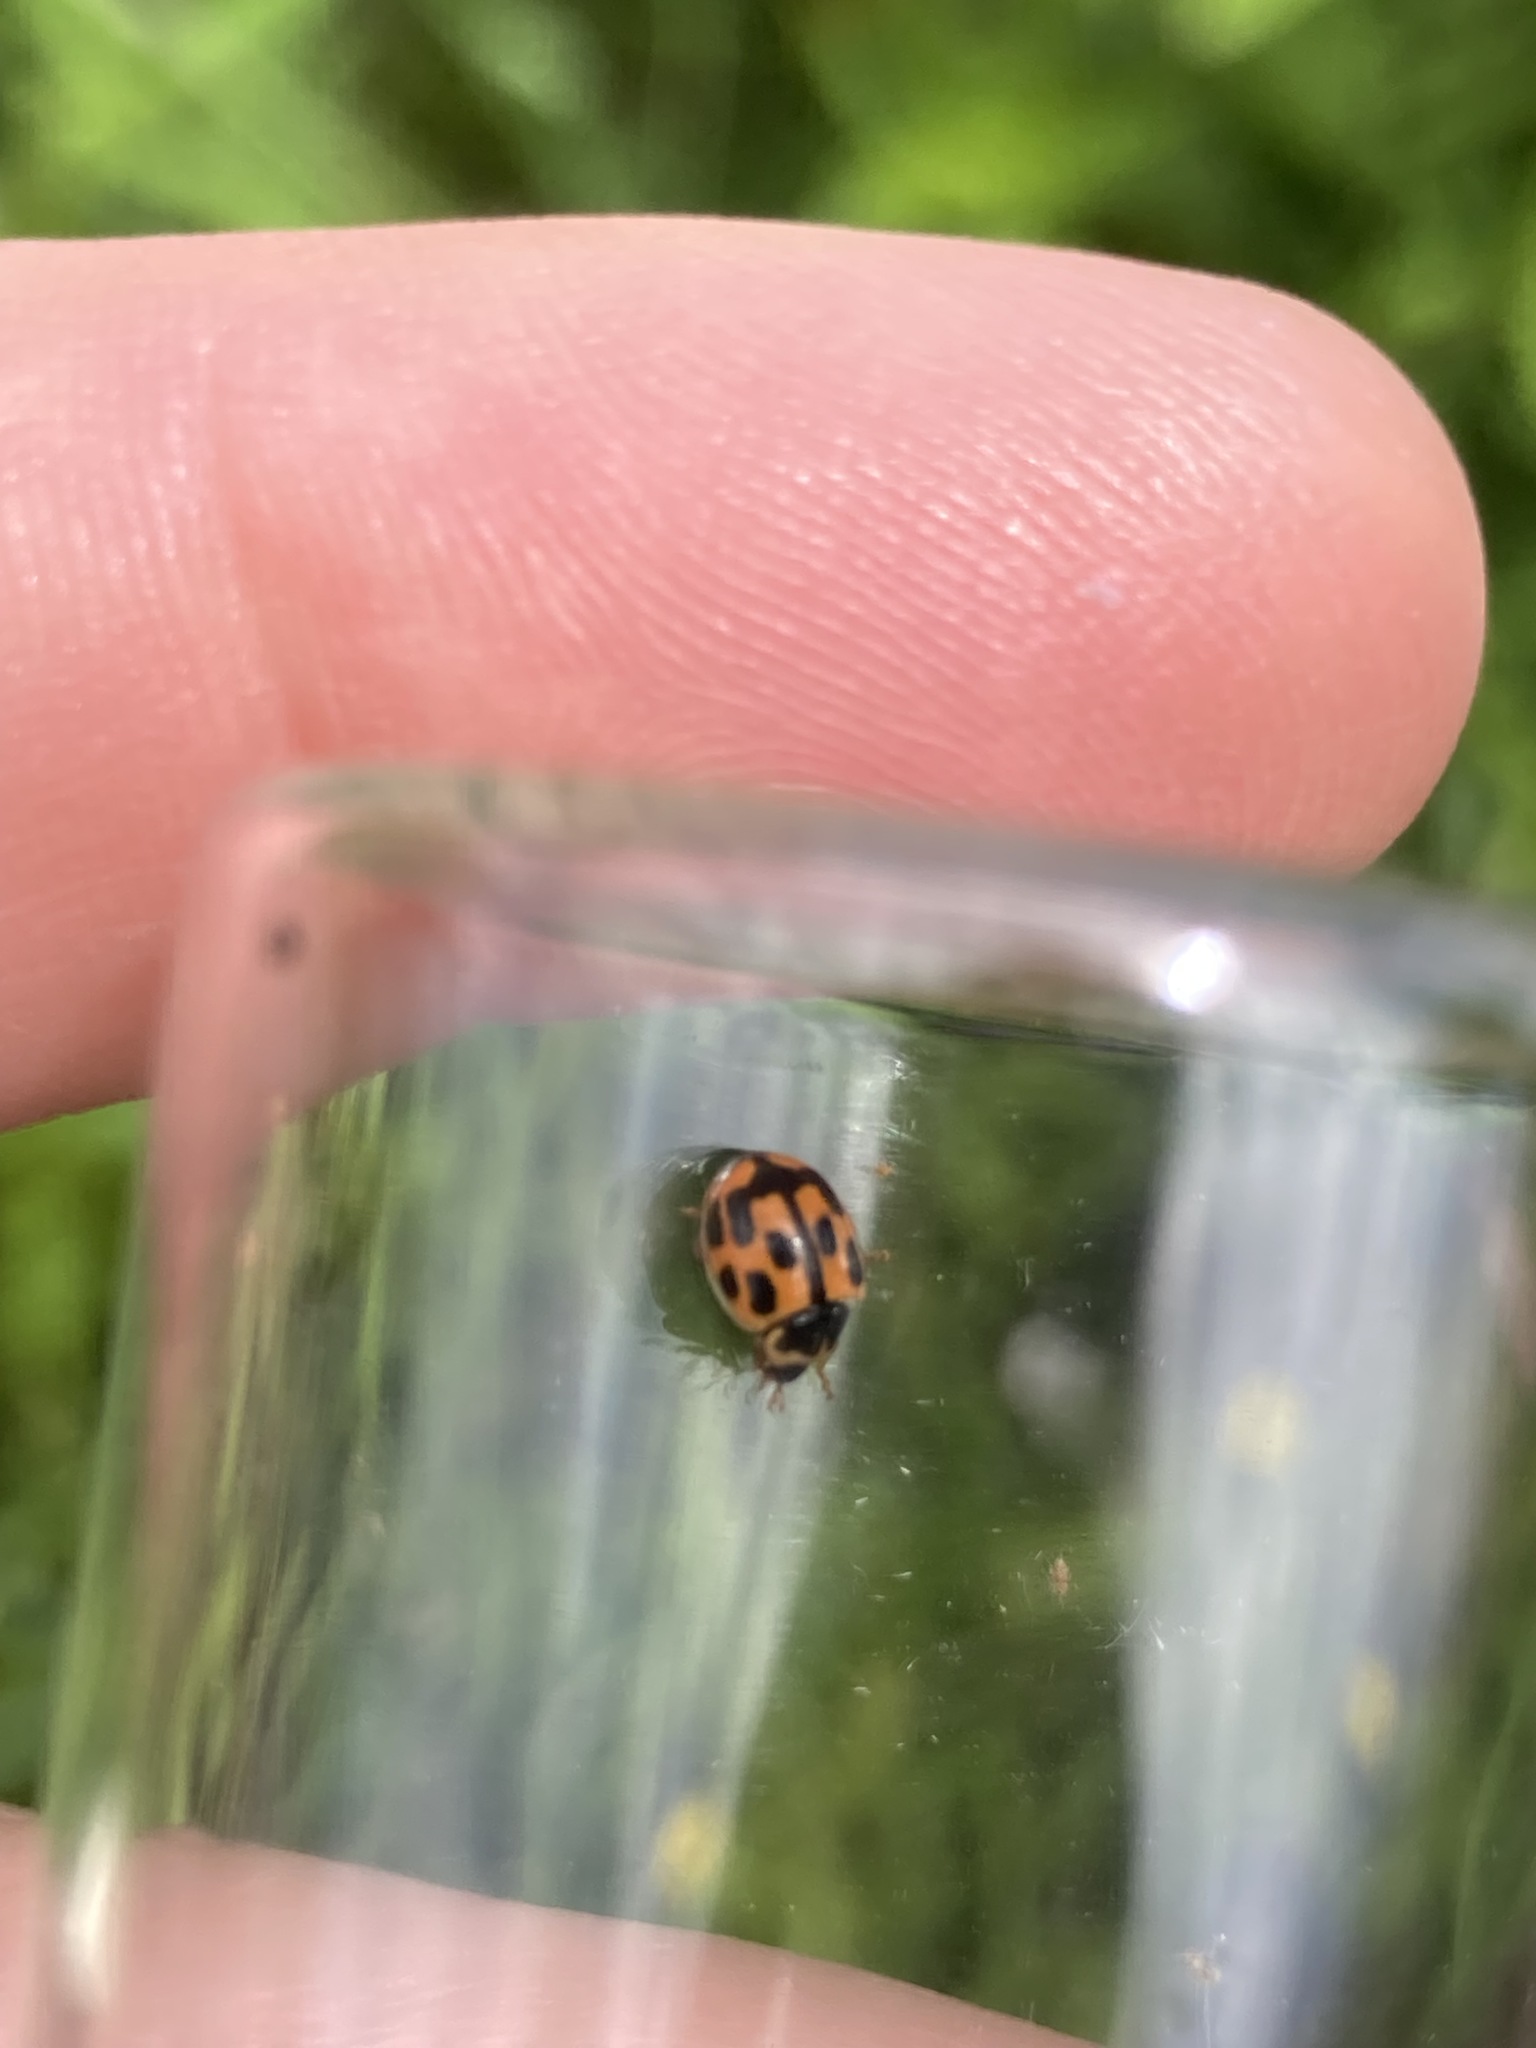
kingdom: Animalia
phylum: Arthropoda
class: Insecta
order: Coleoptera
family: Coccinellidae
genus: Propylaea
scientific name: Propylaea quatuordecimpunctata
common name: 14-spotted ladybird beetle
